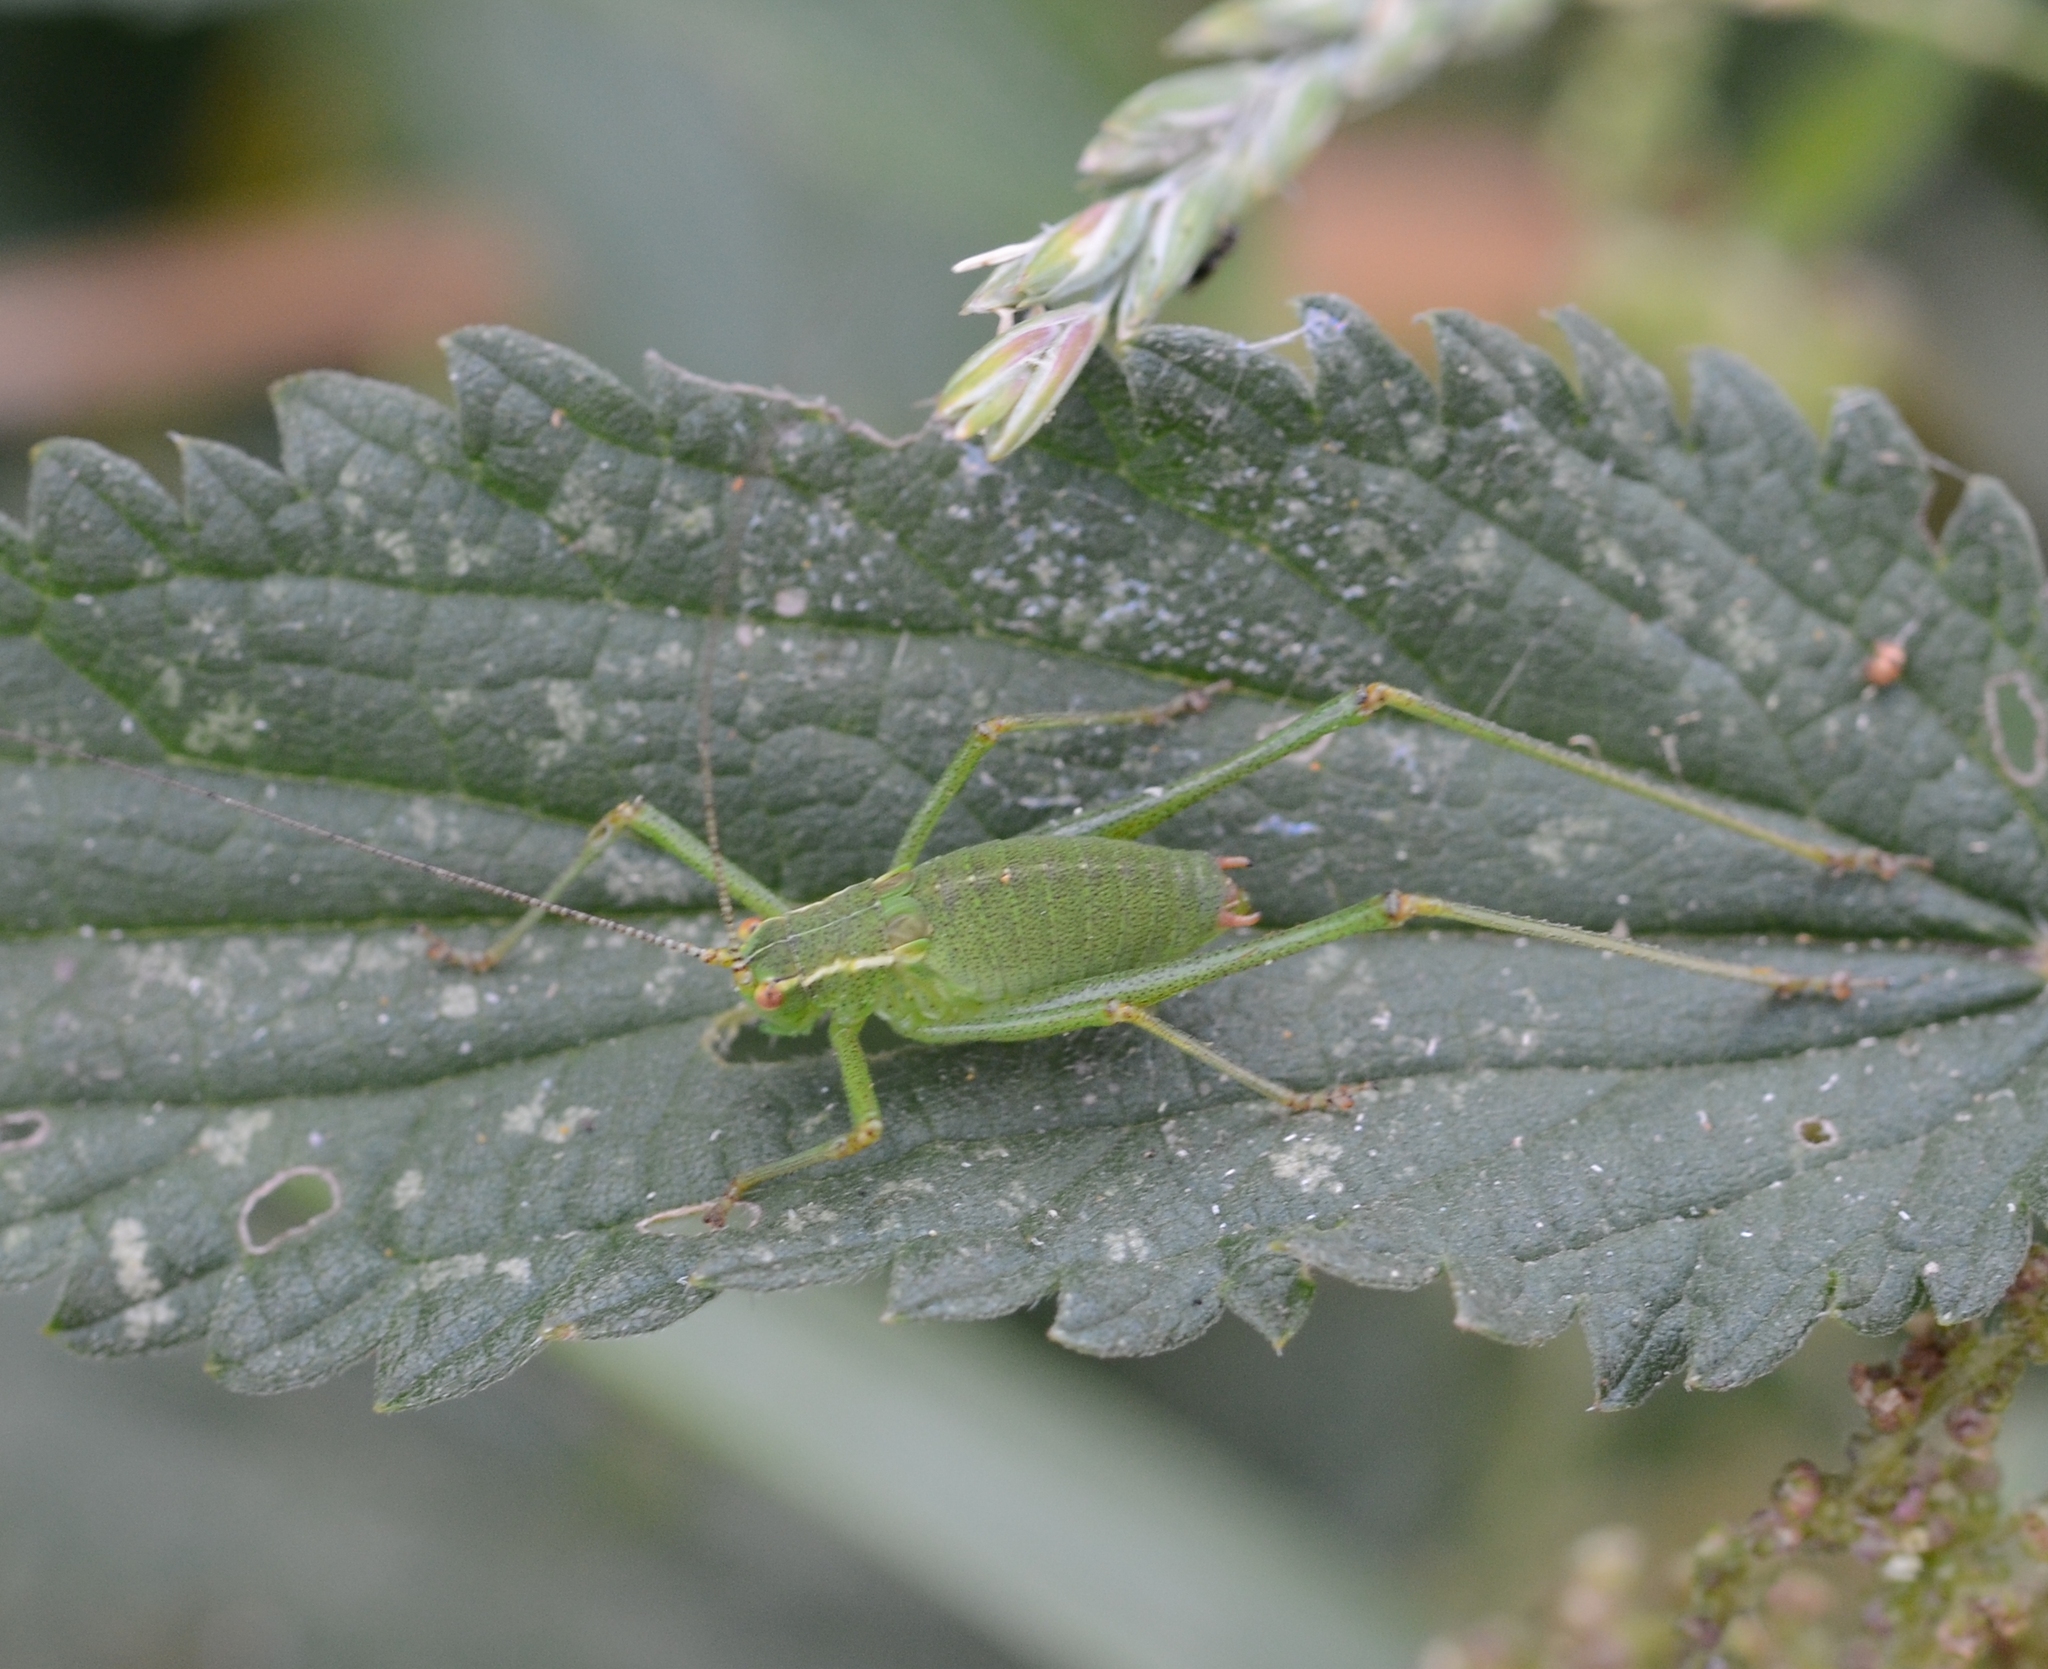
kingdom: Animalia
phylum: Arthropoda
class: Insecta
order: Orthoptera
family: Tettigoniidae
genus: Leptophyes
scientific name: Leptophyes punctatissima
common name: Speckled bush-cricket
